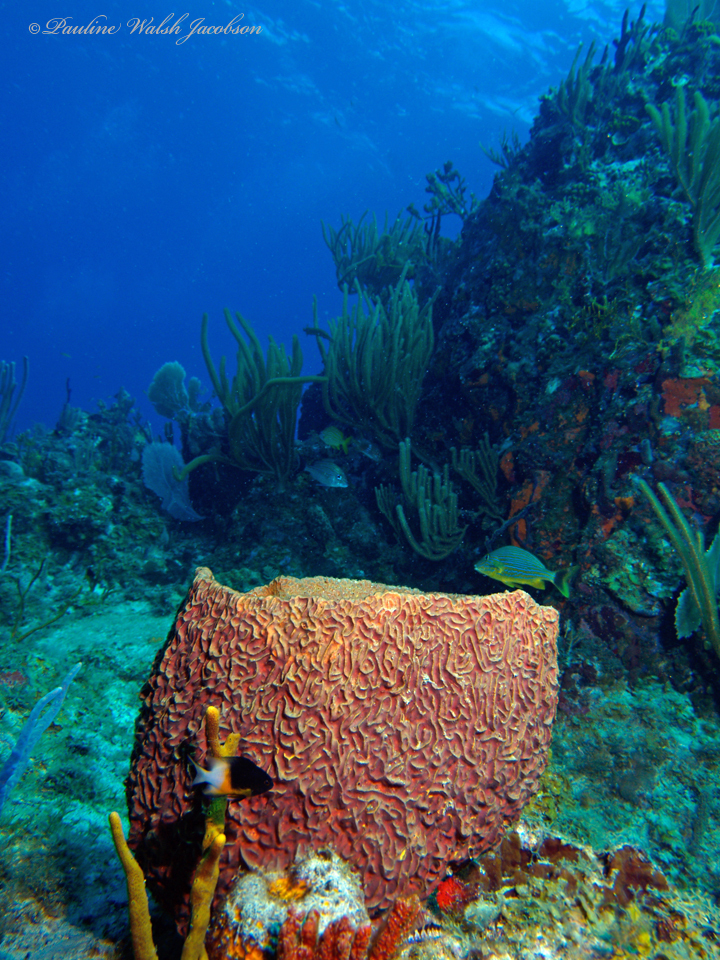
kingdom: Animalia
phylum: Porifera
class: Demospongiae
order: Verongiida
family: Aplysinidae
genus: Verongula
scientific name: Verongula gigantea
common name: Netted barrel sponge
